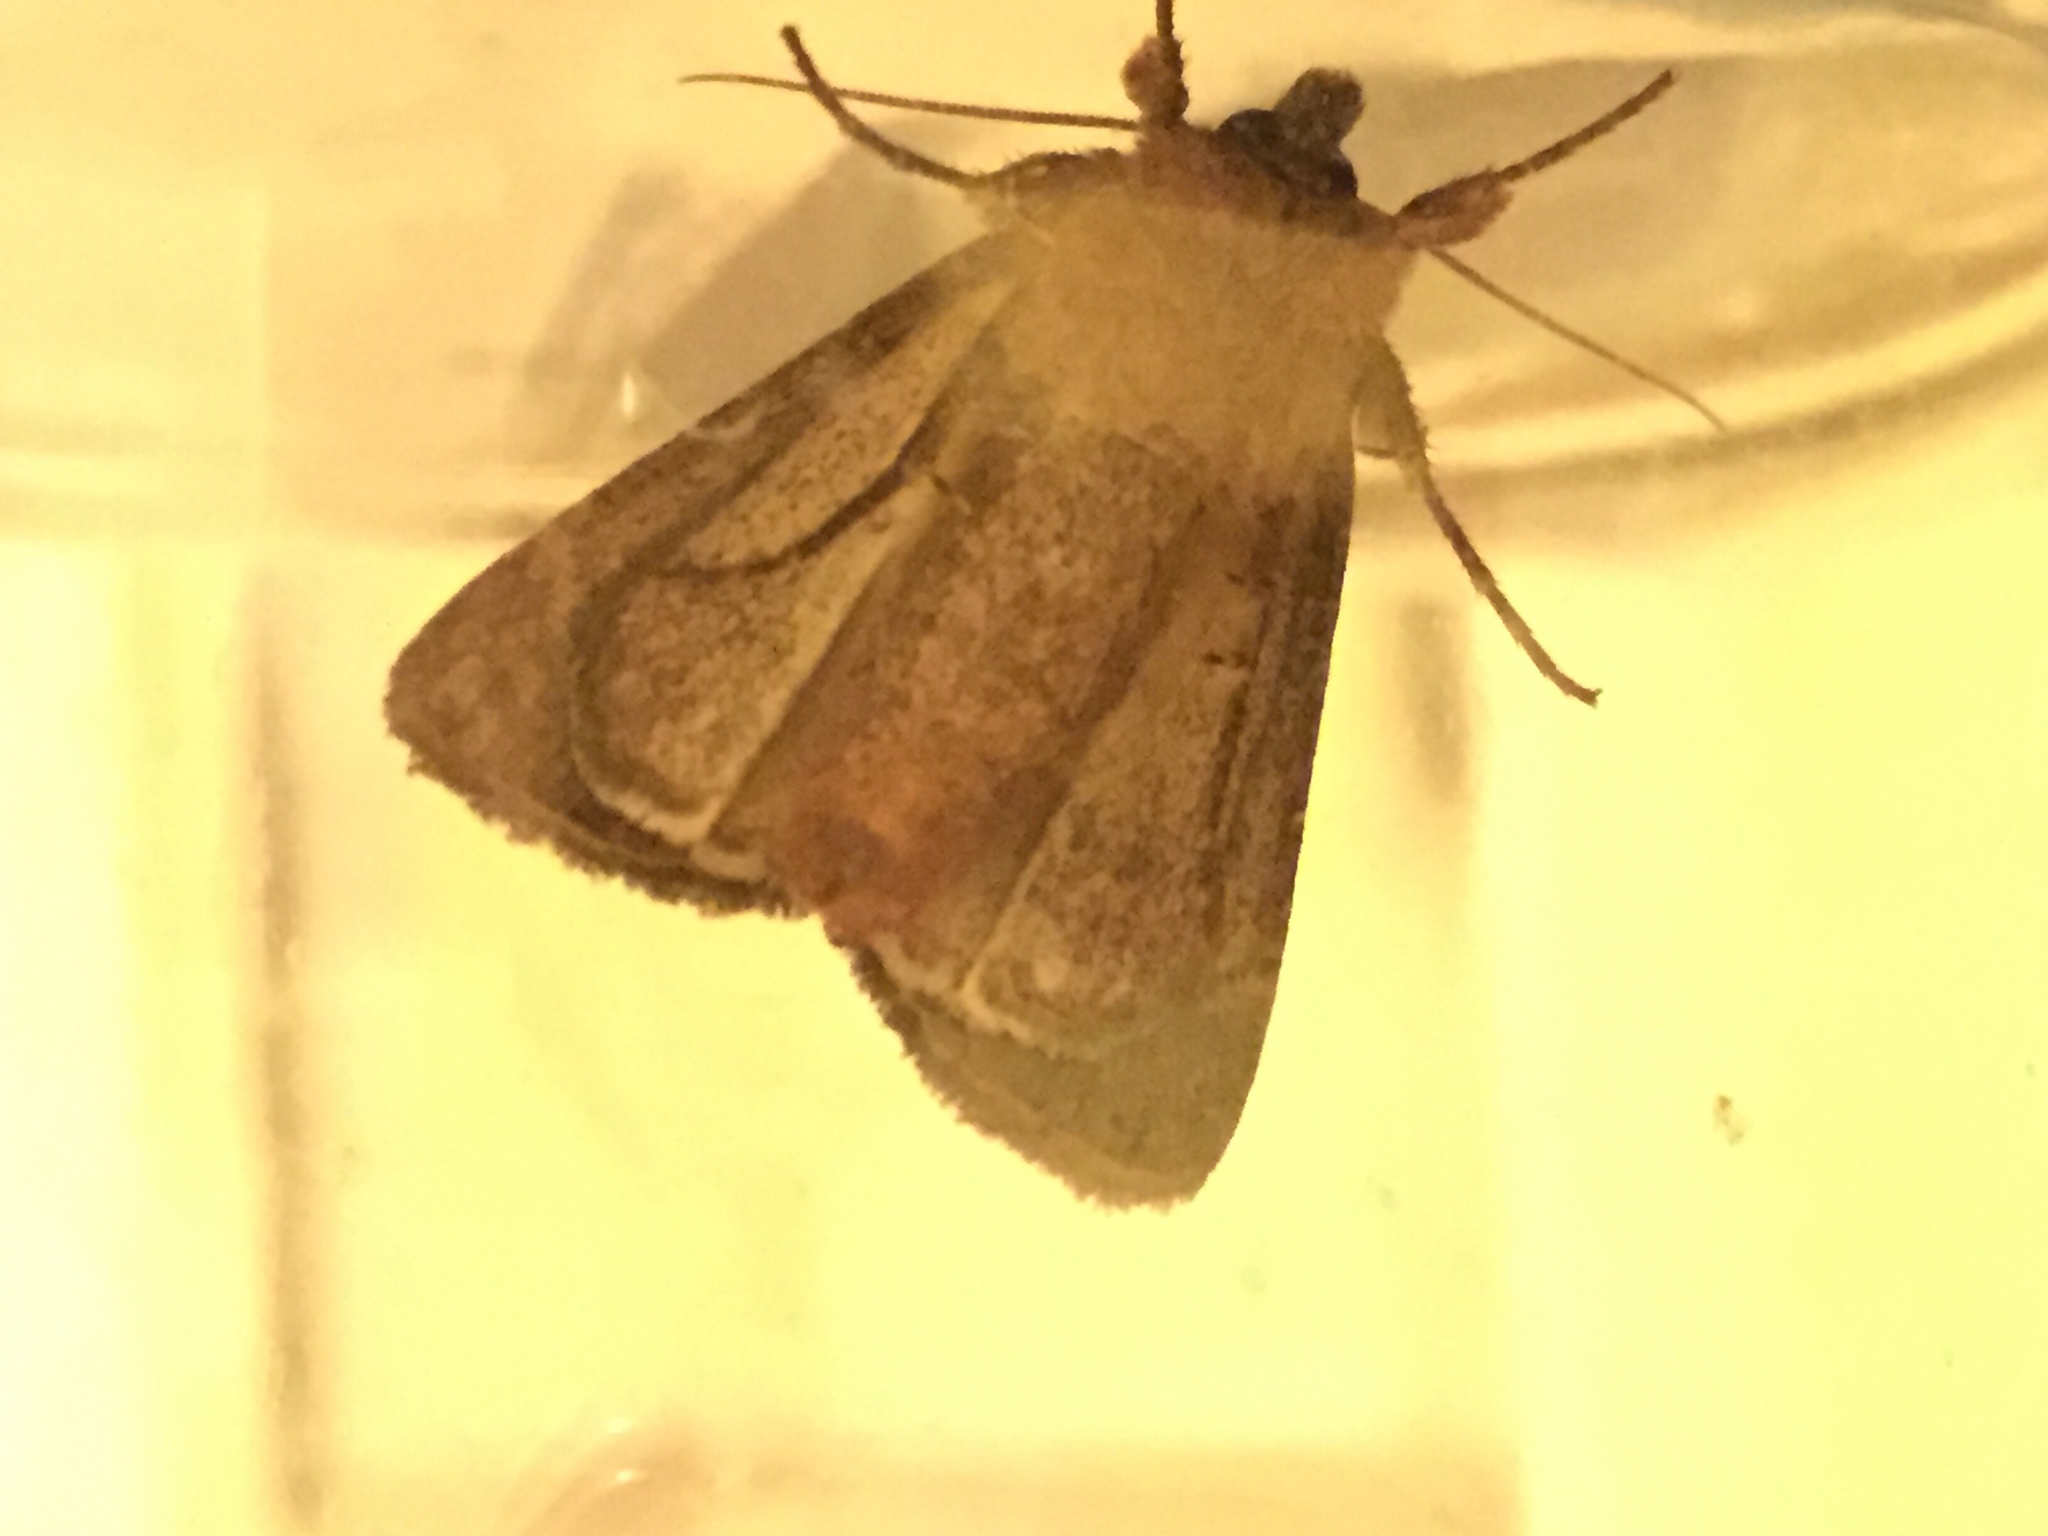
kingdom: Animalia
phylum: Arthropoda
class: Insecta
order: Lepidoptera
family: Noctuidae
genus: Xestia
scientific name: Xestia xanthographa
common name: Square-spot rustic
